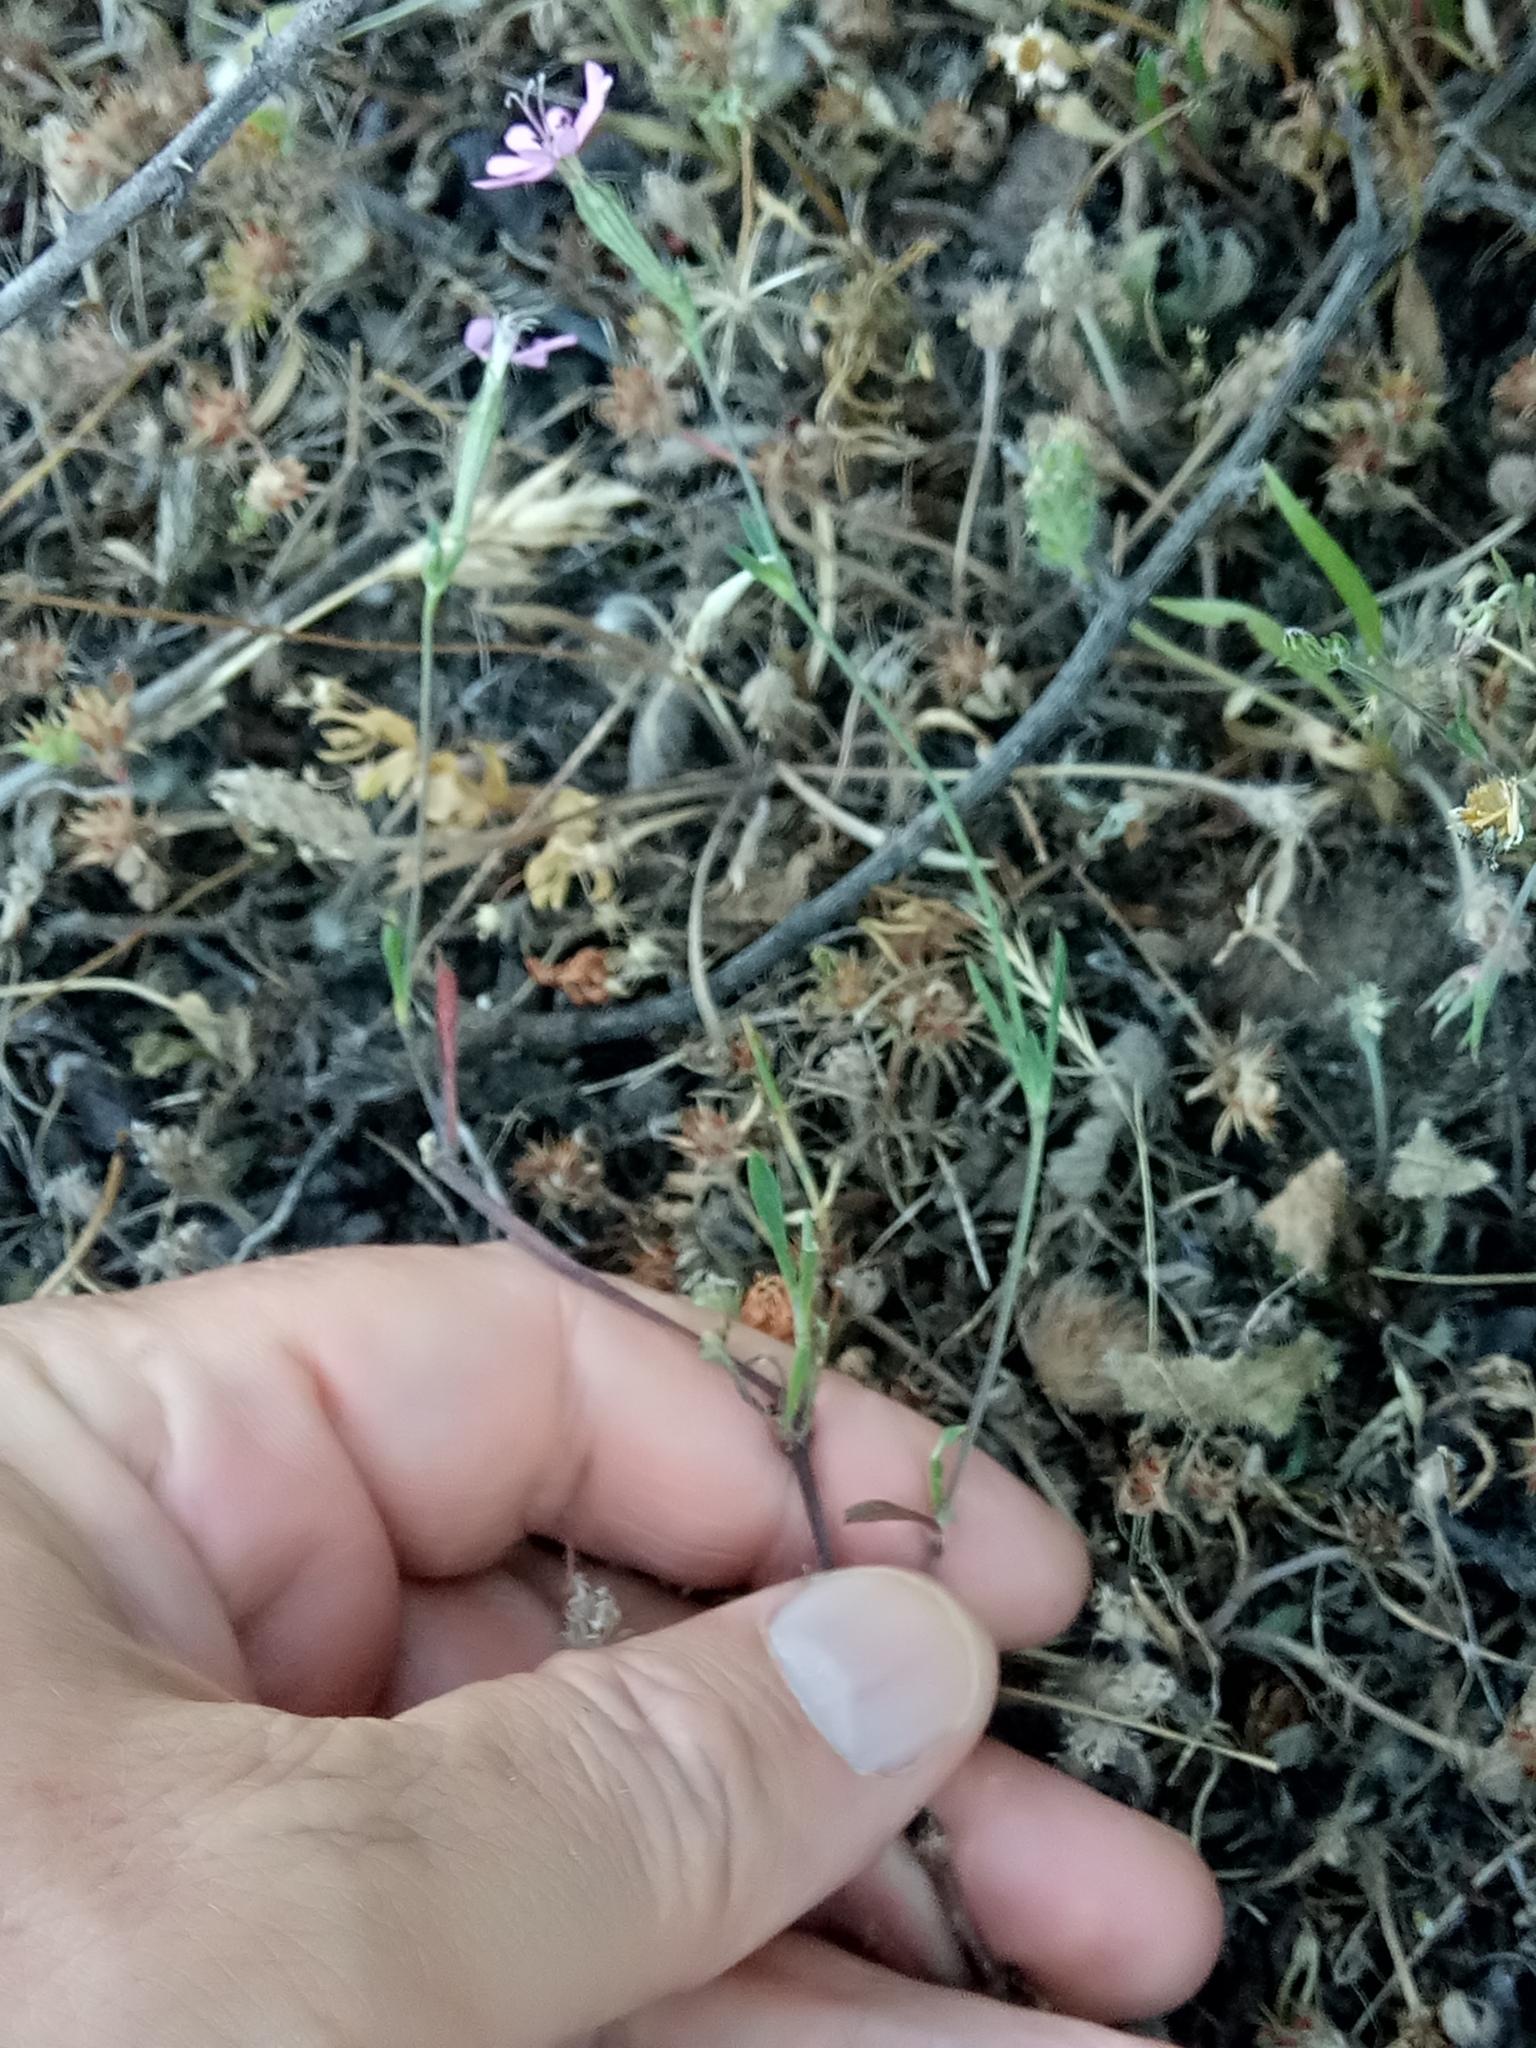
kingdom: Plantae
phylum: Tracheophyta
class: Magnoliopsida
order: Caryophyllales
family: Caryophyllaceae
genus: Silene
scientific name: Silene colorata
